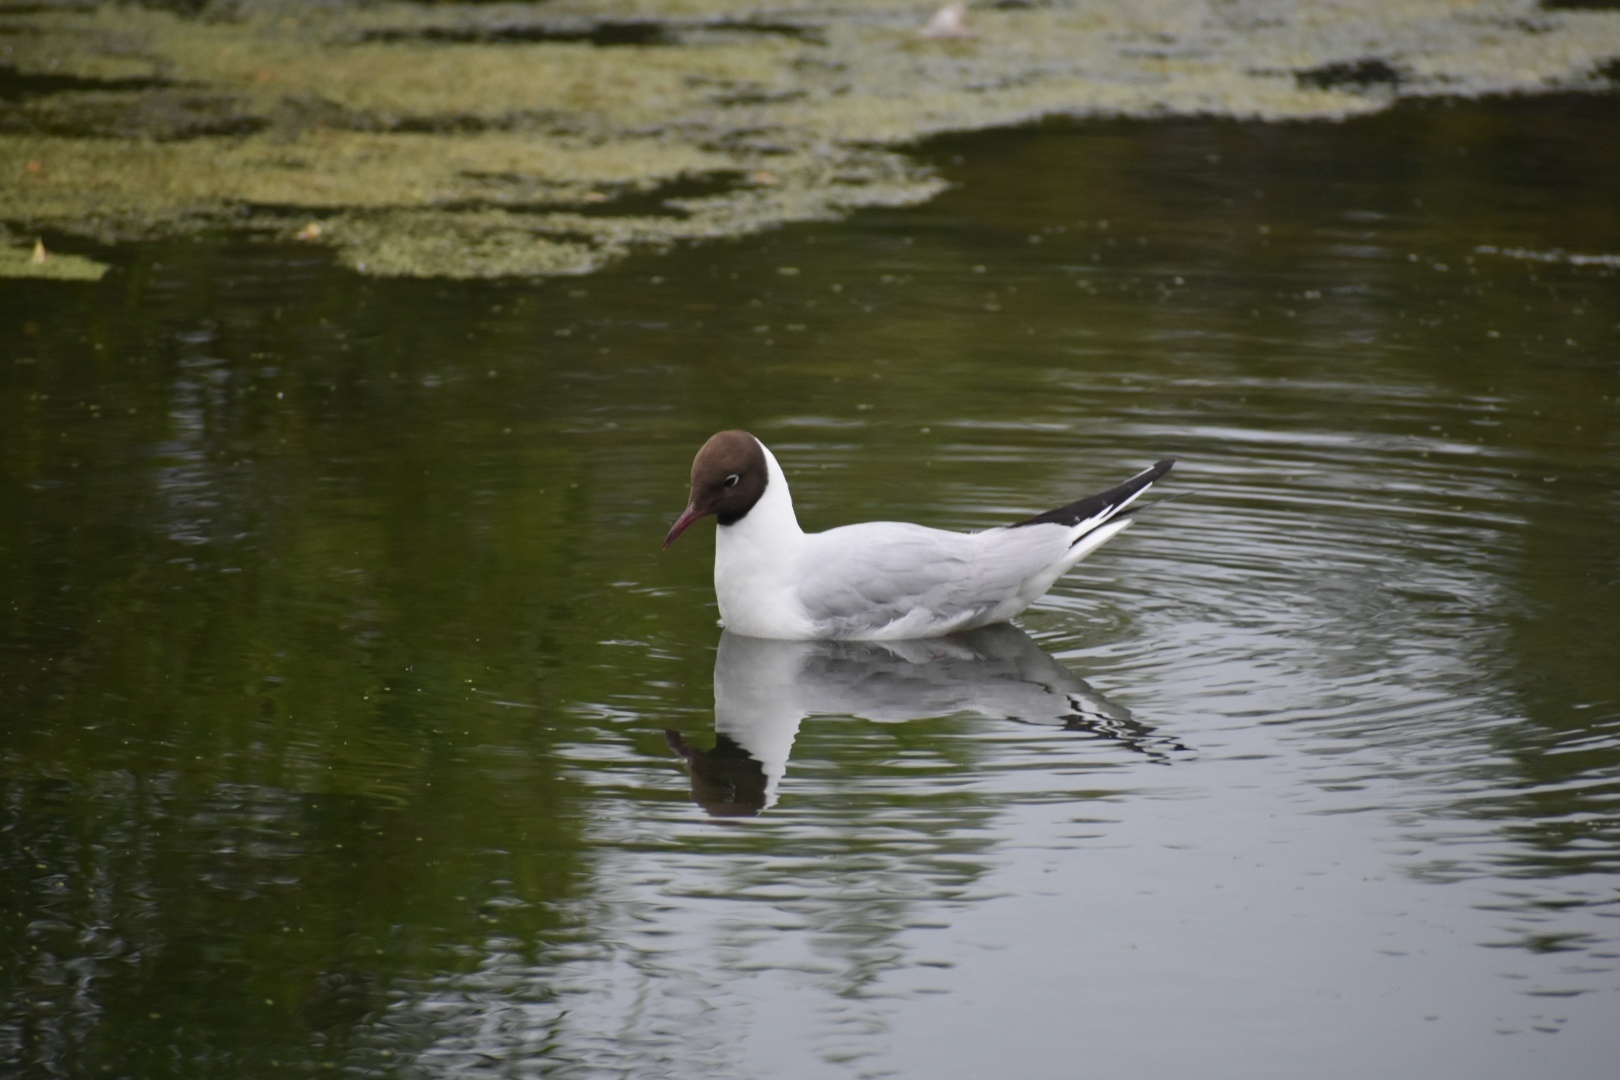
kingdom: Animalia
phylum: Chordata
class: Aves
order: Charadriiformes
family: Laridae
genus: Chroicocephalus
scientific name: Chroicocephalus ridibundus
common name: Black-headed gull
